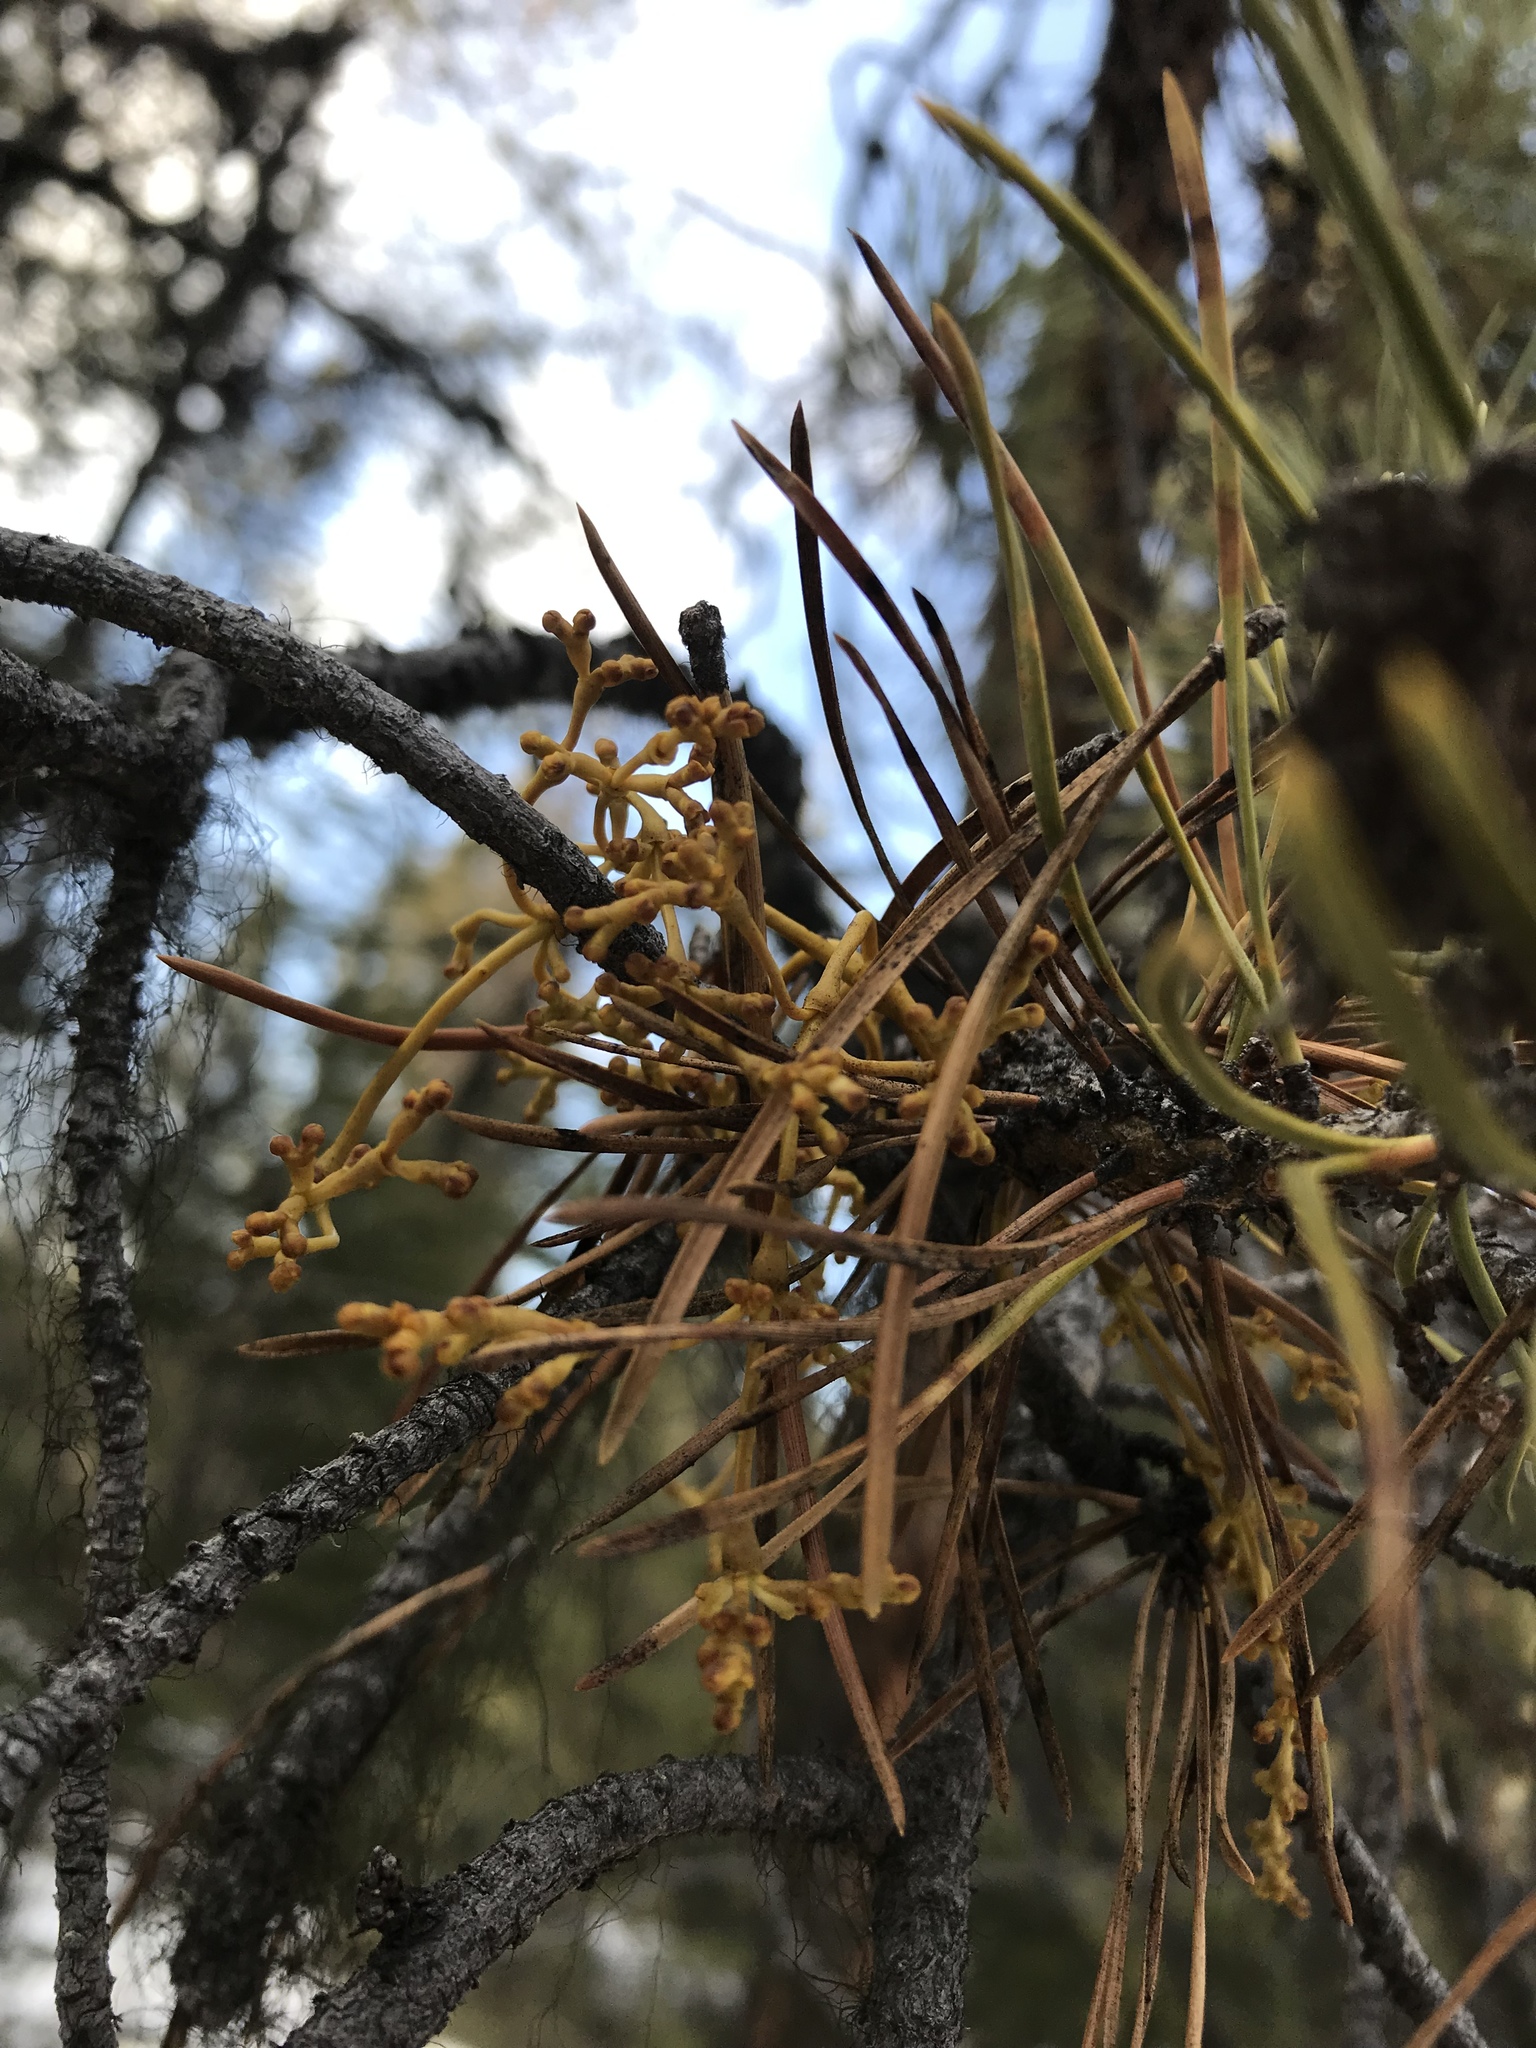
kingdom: Plantae
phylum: Tracheophyta
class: Magnoliopsida
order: Santalales
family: Viscaceae
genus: Arceuthobium
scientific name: Arceuthobium americanum
